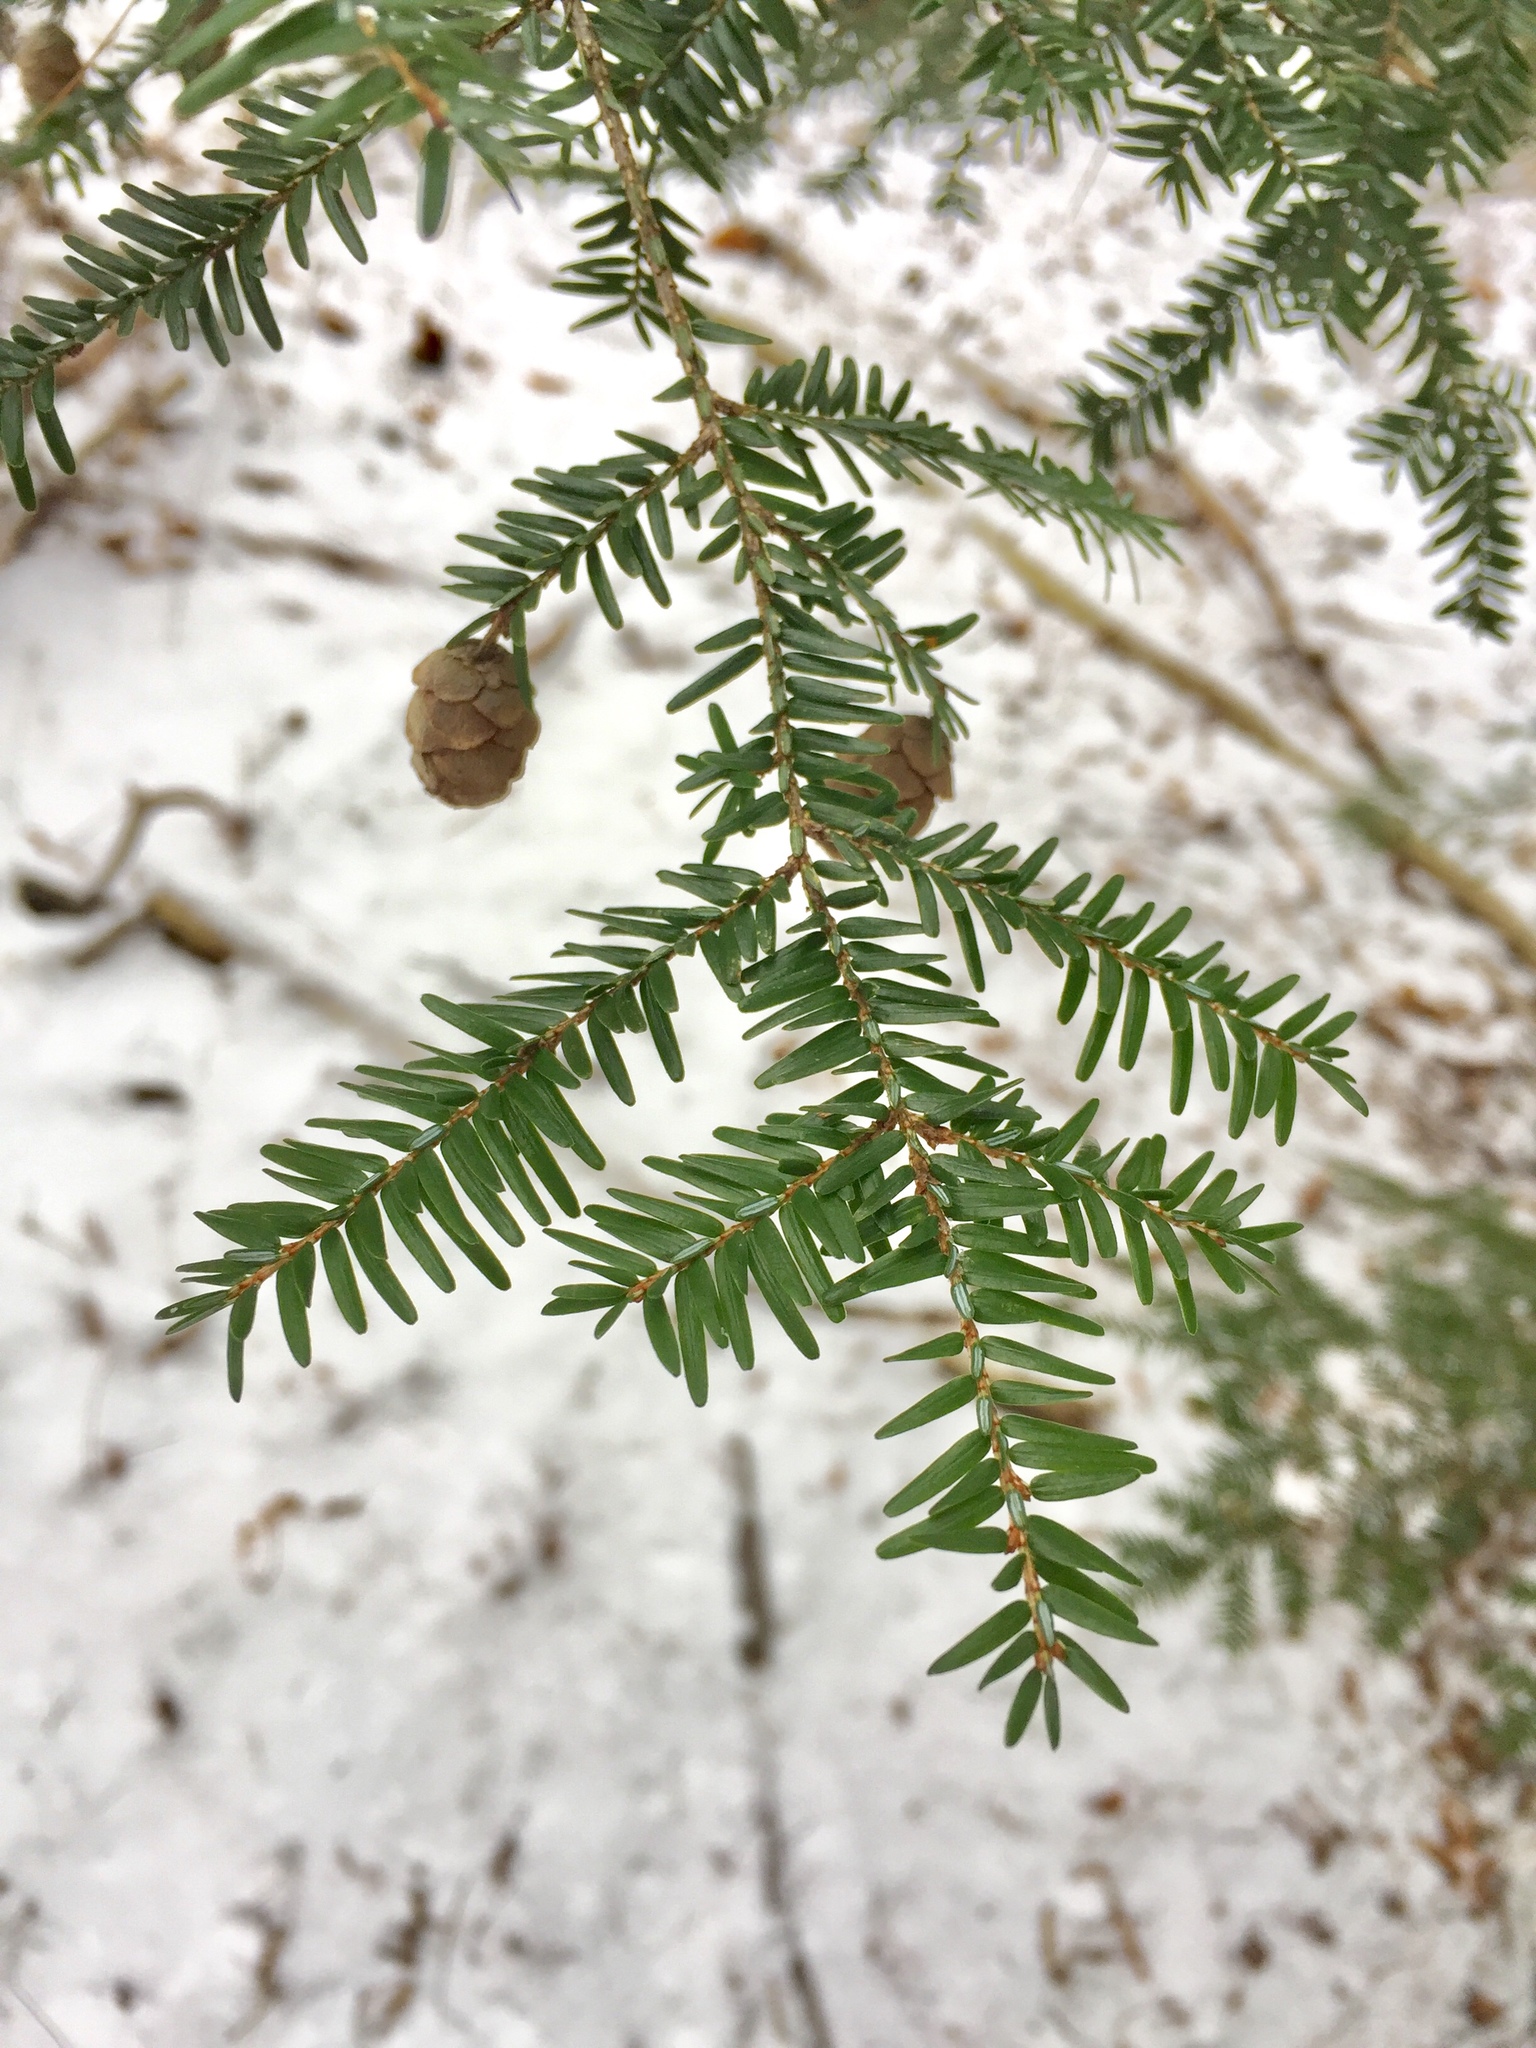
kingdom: Plantae
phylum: Tracheophyta
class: Pinopsida
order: Pinales
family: Pinaceae
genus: Tsuga
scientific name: Tsuga canadensis
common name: Eastern hemlock
